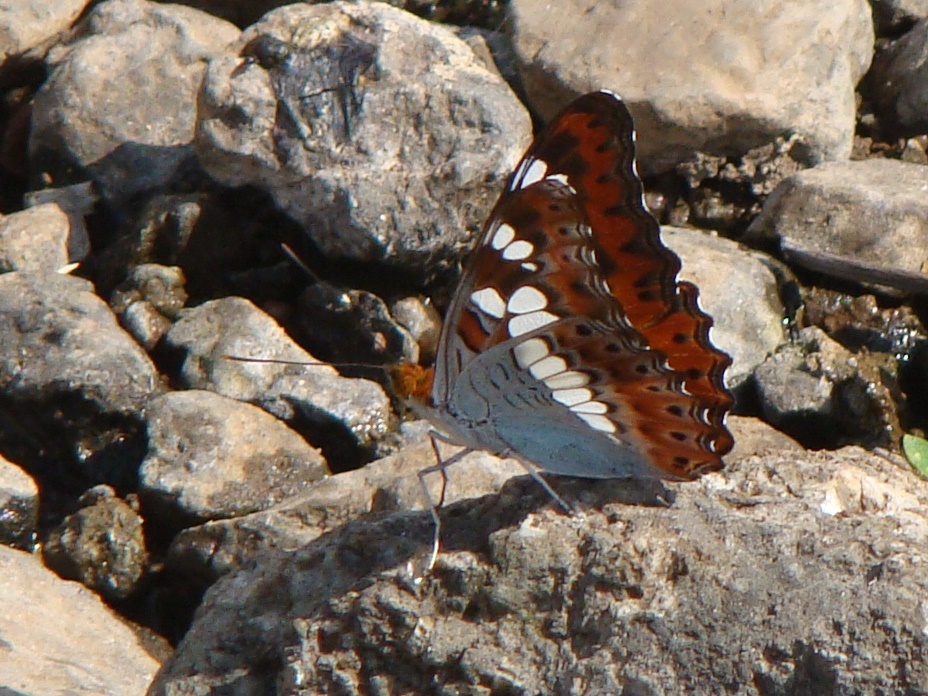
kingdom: Animalia
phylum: Arthropoda
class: Insecta
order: Lepidoptera
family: Nymphalidae
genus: Limenitis
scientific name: Limenitis Moduza procris
